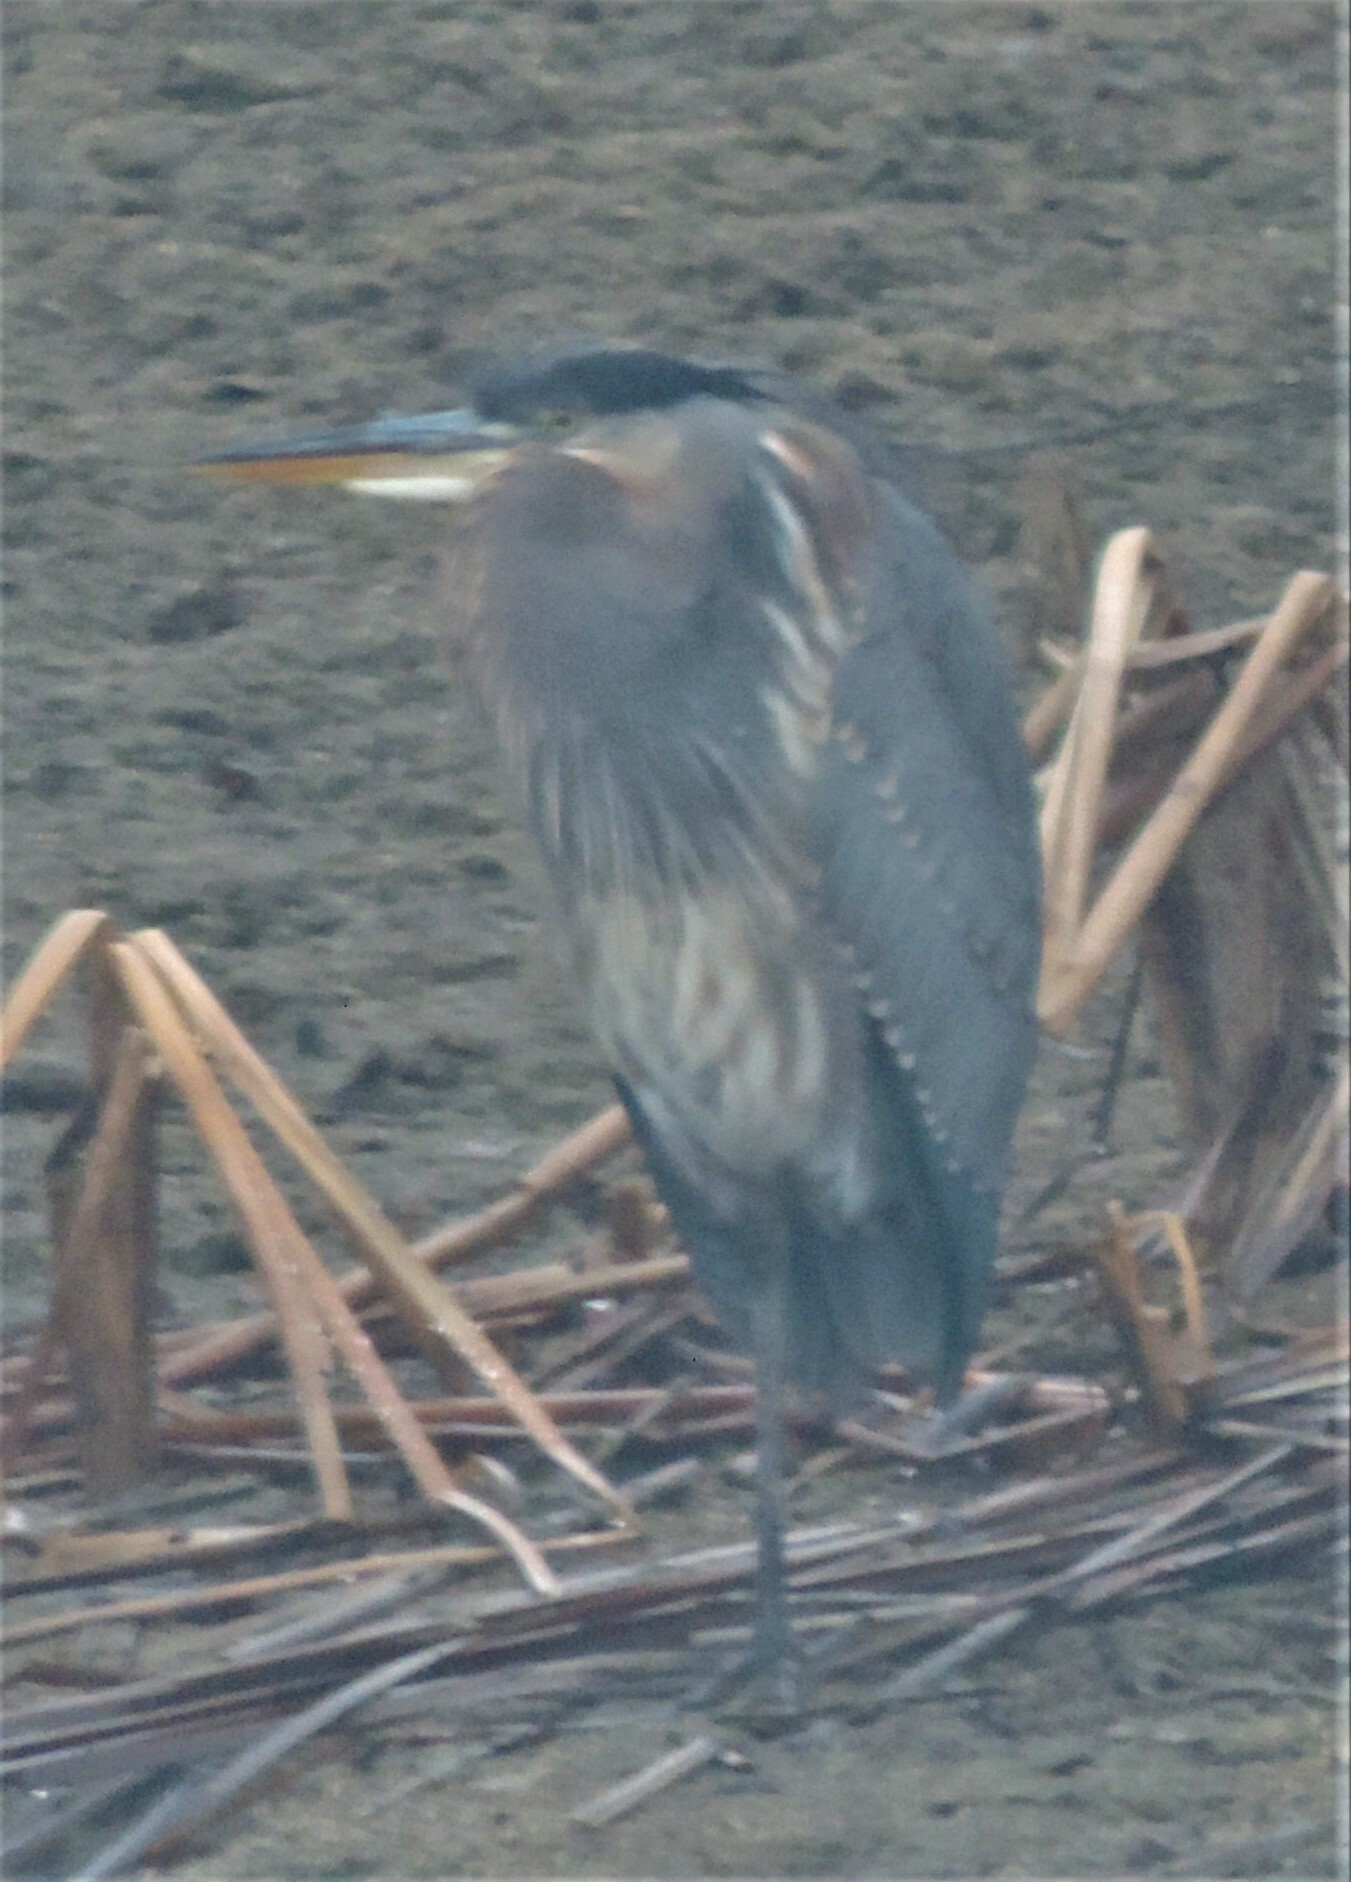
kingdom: Animalia
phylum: Chordata
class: Aves
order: Pelecaniformes
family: Ardeidae
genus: Ardea
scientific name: Ardea herodias
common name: Great blue heron
